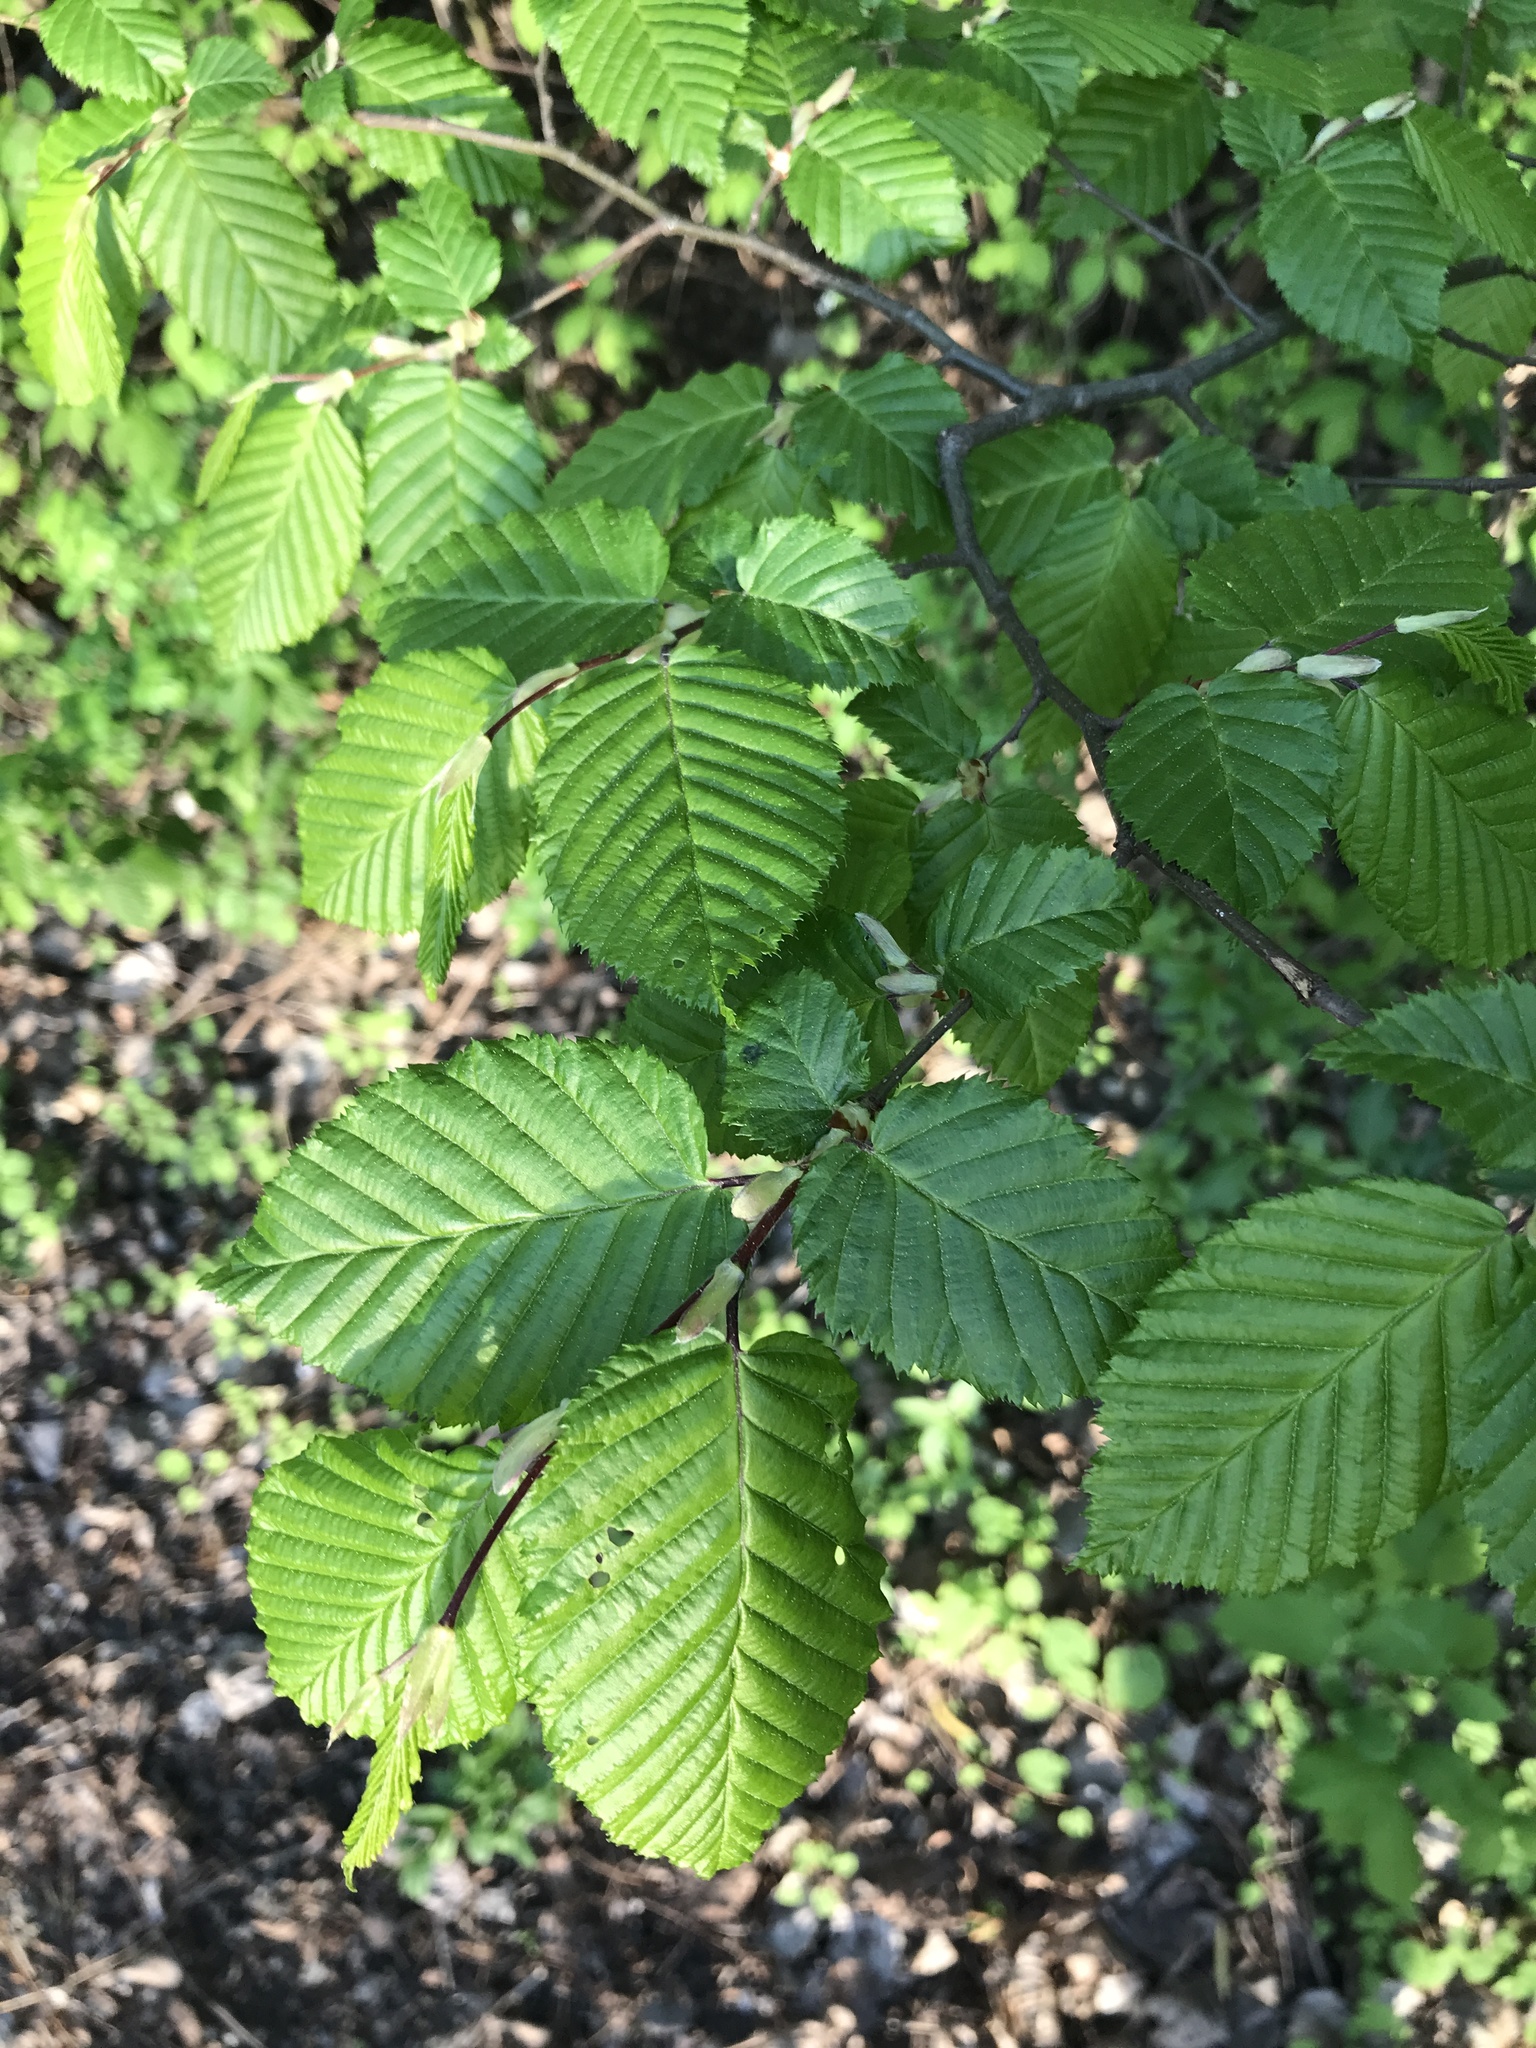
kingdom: Plantae
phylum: Tracheophyta
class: Magnoliopsida
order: Fagales
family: Betulaceae
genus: Carpinus
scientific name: Carpinus betulus
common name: Hornbeam
